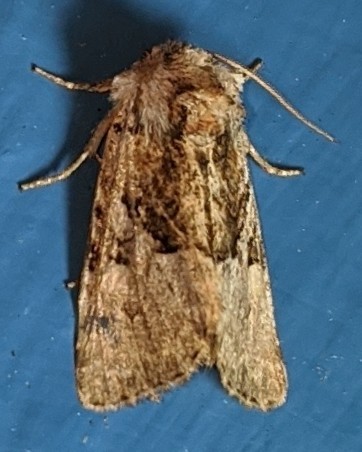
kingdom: Animalia
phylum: Arthropoda
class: Insecta
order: Lepidoptera
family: Noctuidae
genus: Meropleon
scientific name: Meropleon diversicolor
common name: Multicolored sedgeminer moth
